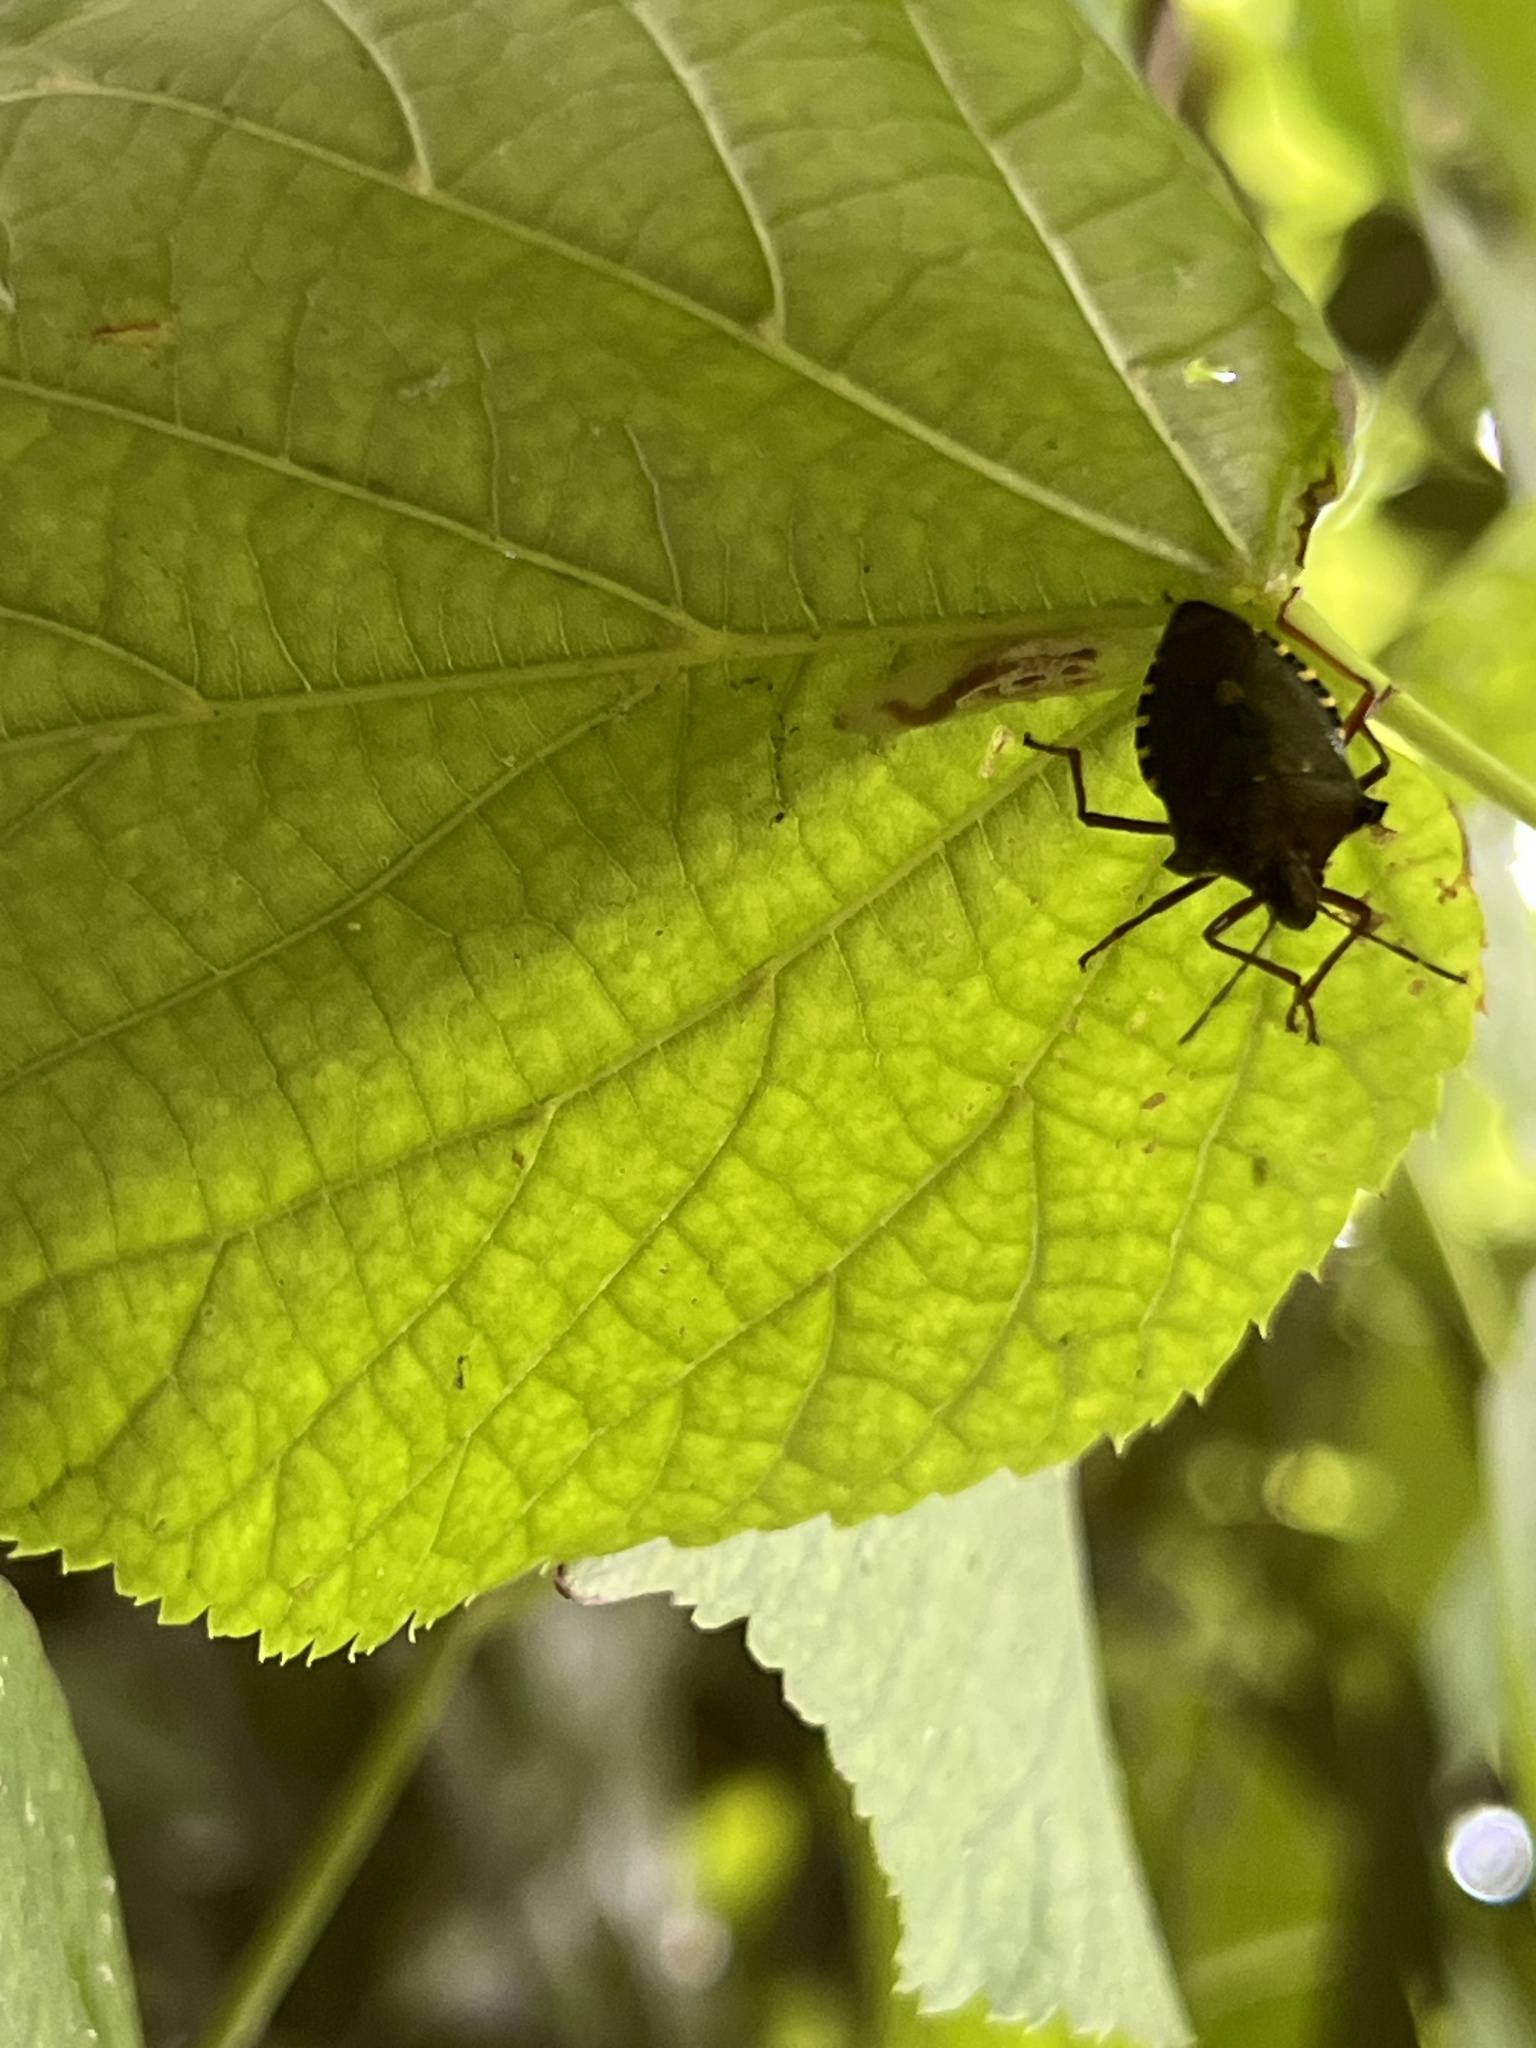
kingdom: Animalia
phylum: Arthropoda
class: Insecta
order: Hemiptera
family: Pentatomidae
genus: Pentatoma
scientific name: Pentatoma rufipes
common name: Forest bug
